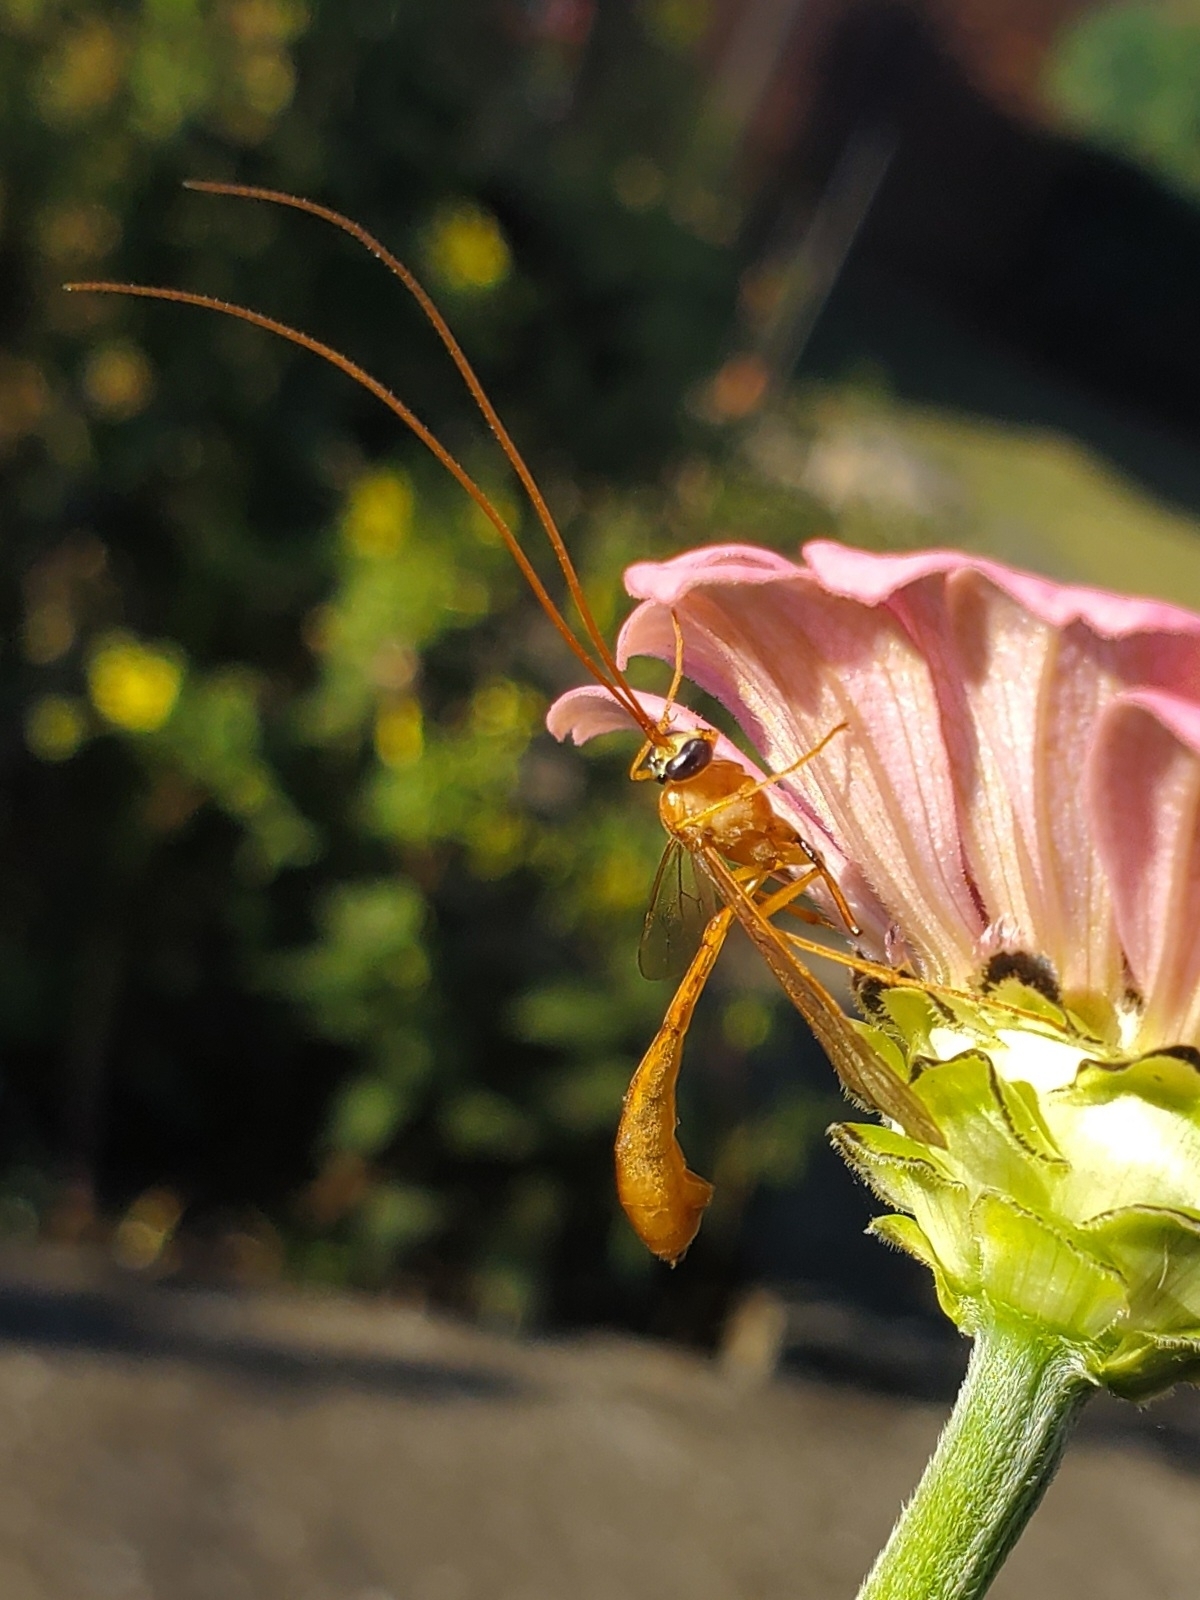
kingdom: Animalia
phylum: Arthropoda
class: Insecta
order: Hymenoptera
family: Ichneumonidae
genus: Enicospilus
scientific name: Enicospilus purgatus
